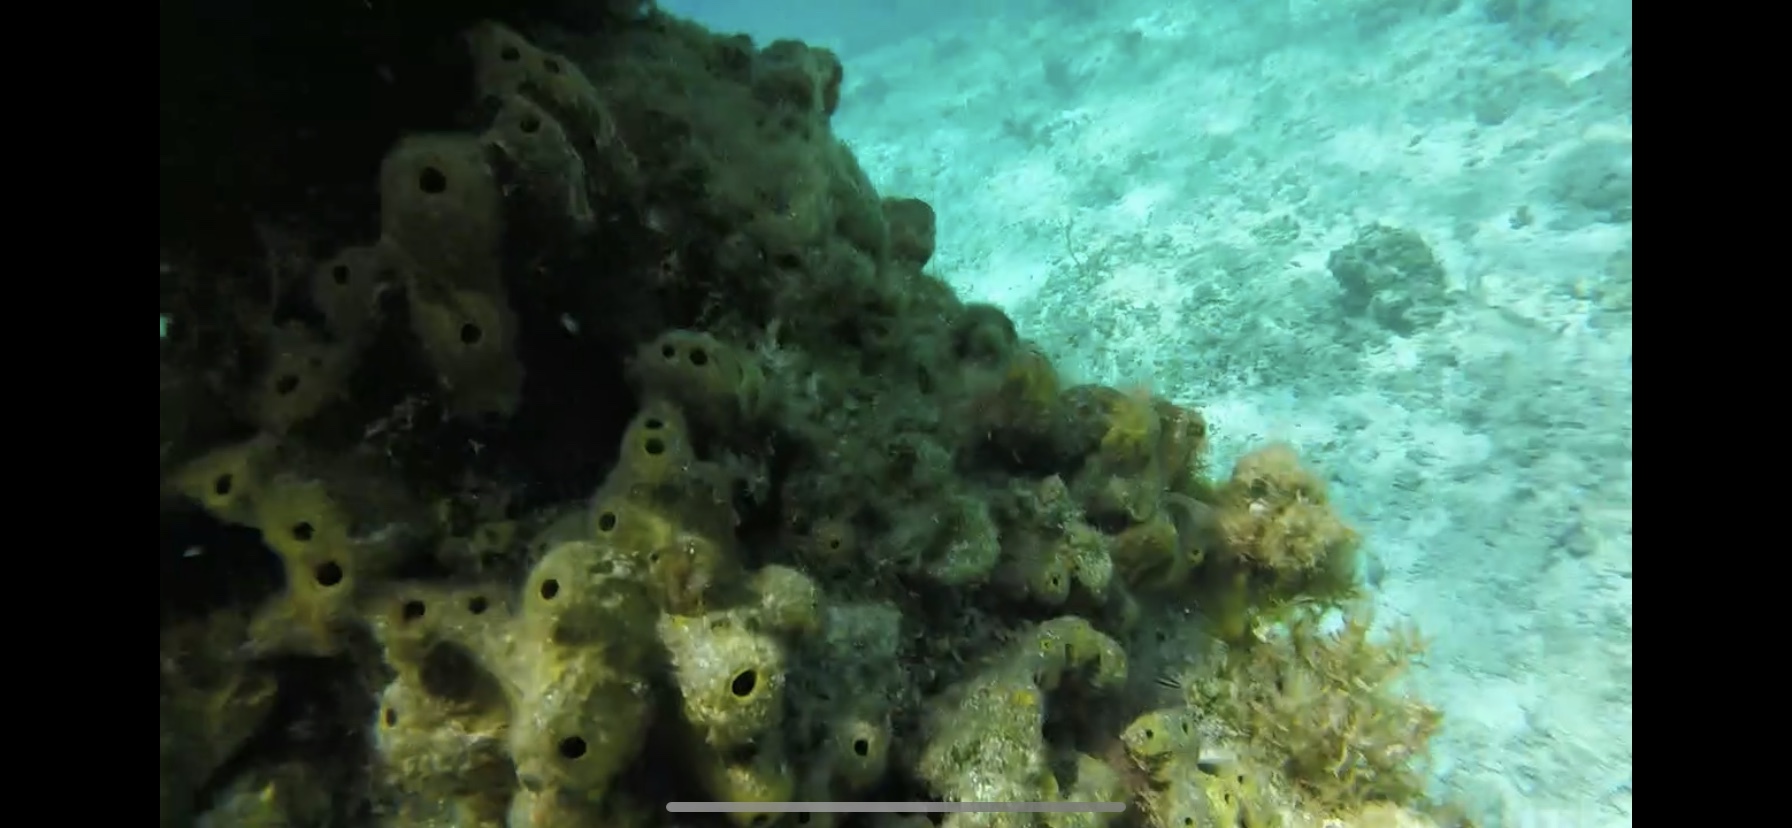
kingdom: Animalia
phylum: Porifera
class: Demospongiae
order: Verongiida
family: Aplysinidae
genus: Verongula
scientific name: Verongula rigida
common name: Pitted sponge
